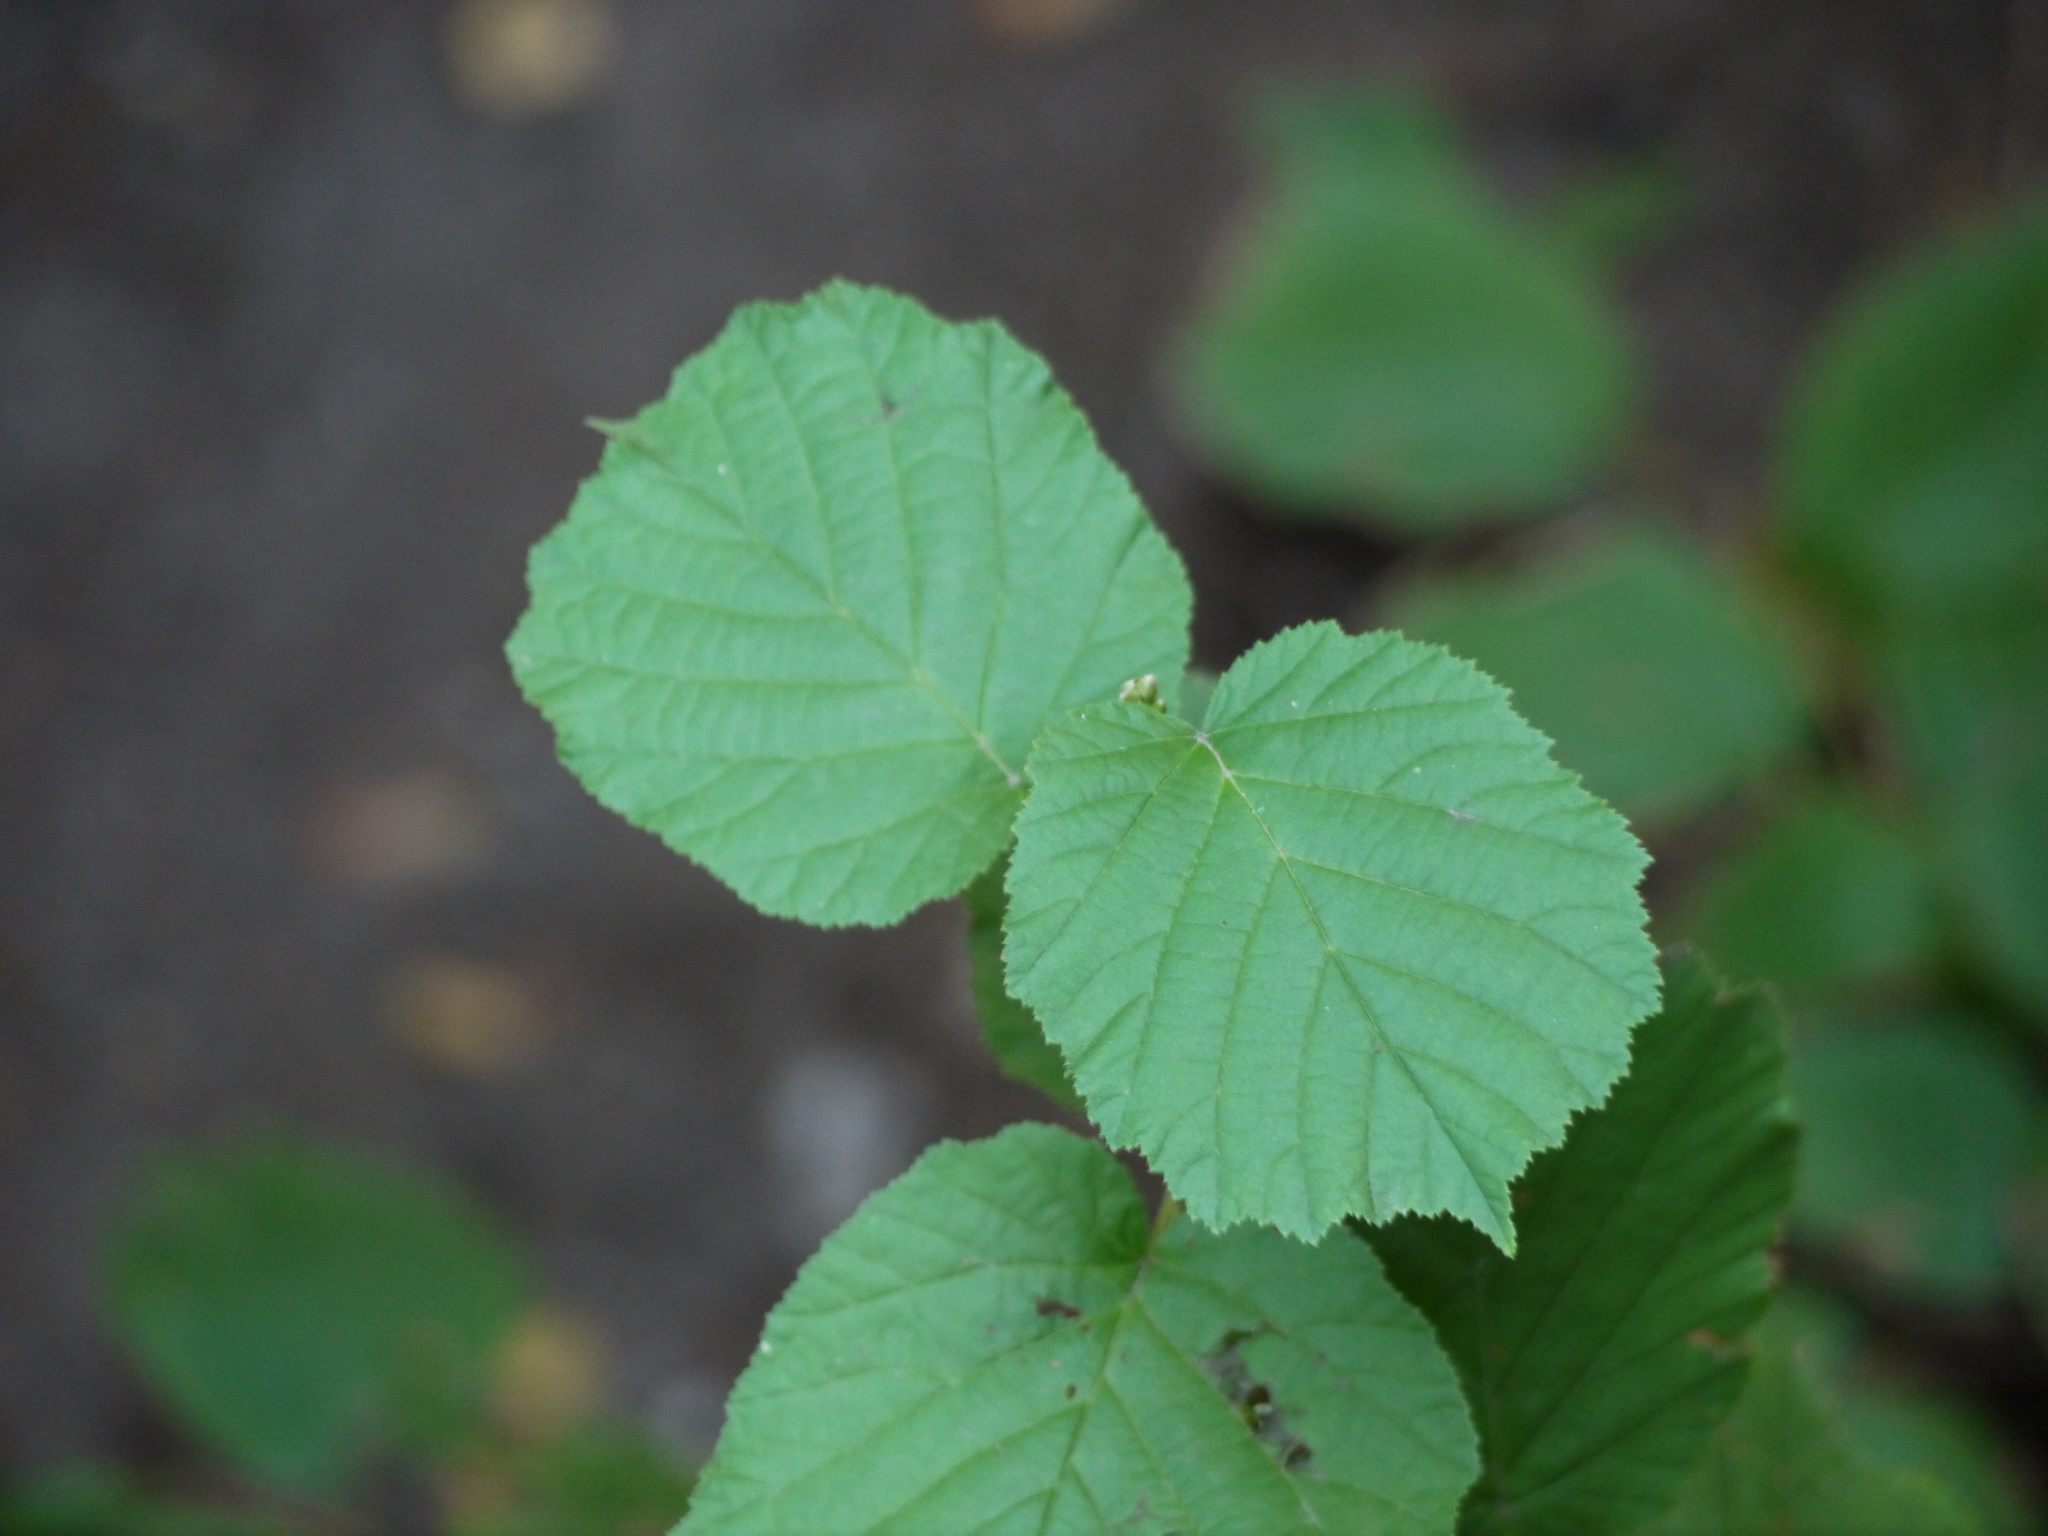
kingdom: Plantae
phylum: Tracheophyta
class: Magnoliopsida
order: Fagales
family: Betulaceae
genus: Corylus
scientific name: Corylus avellana
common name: European hazel
